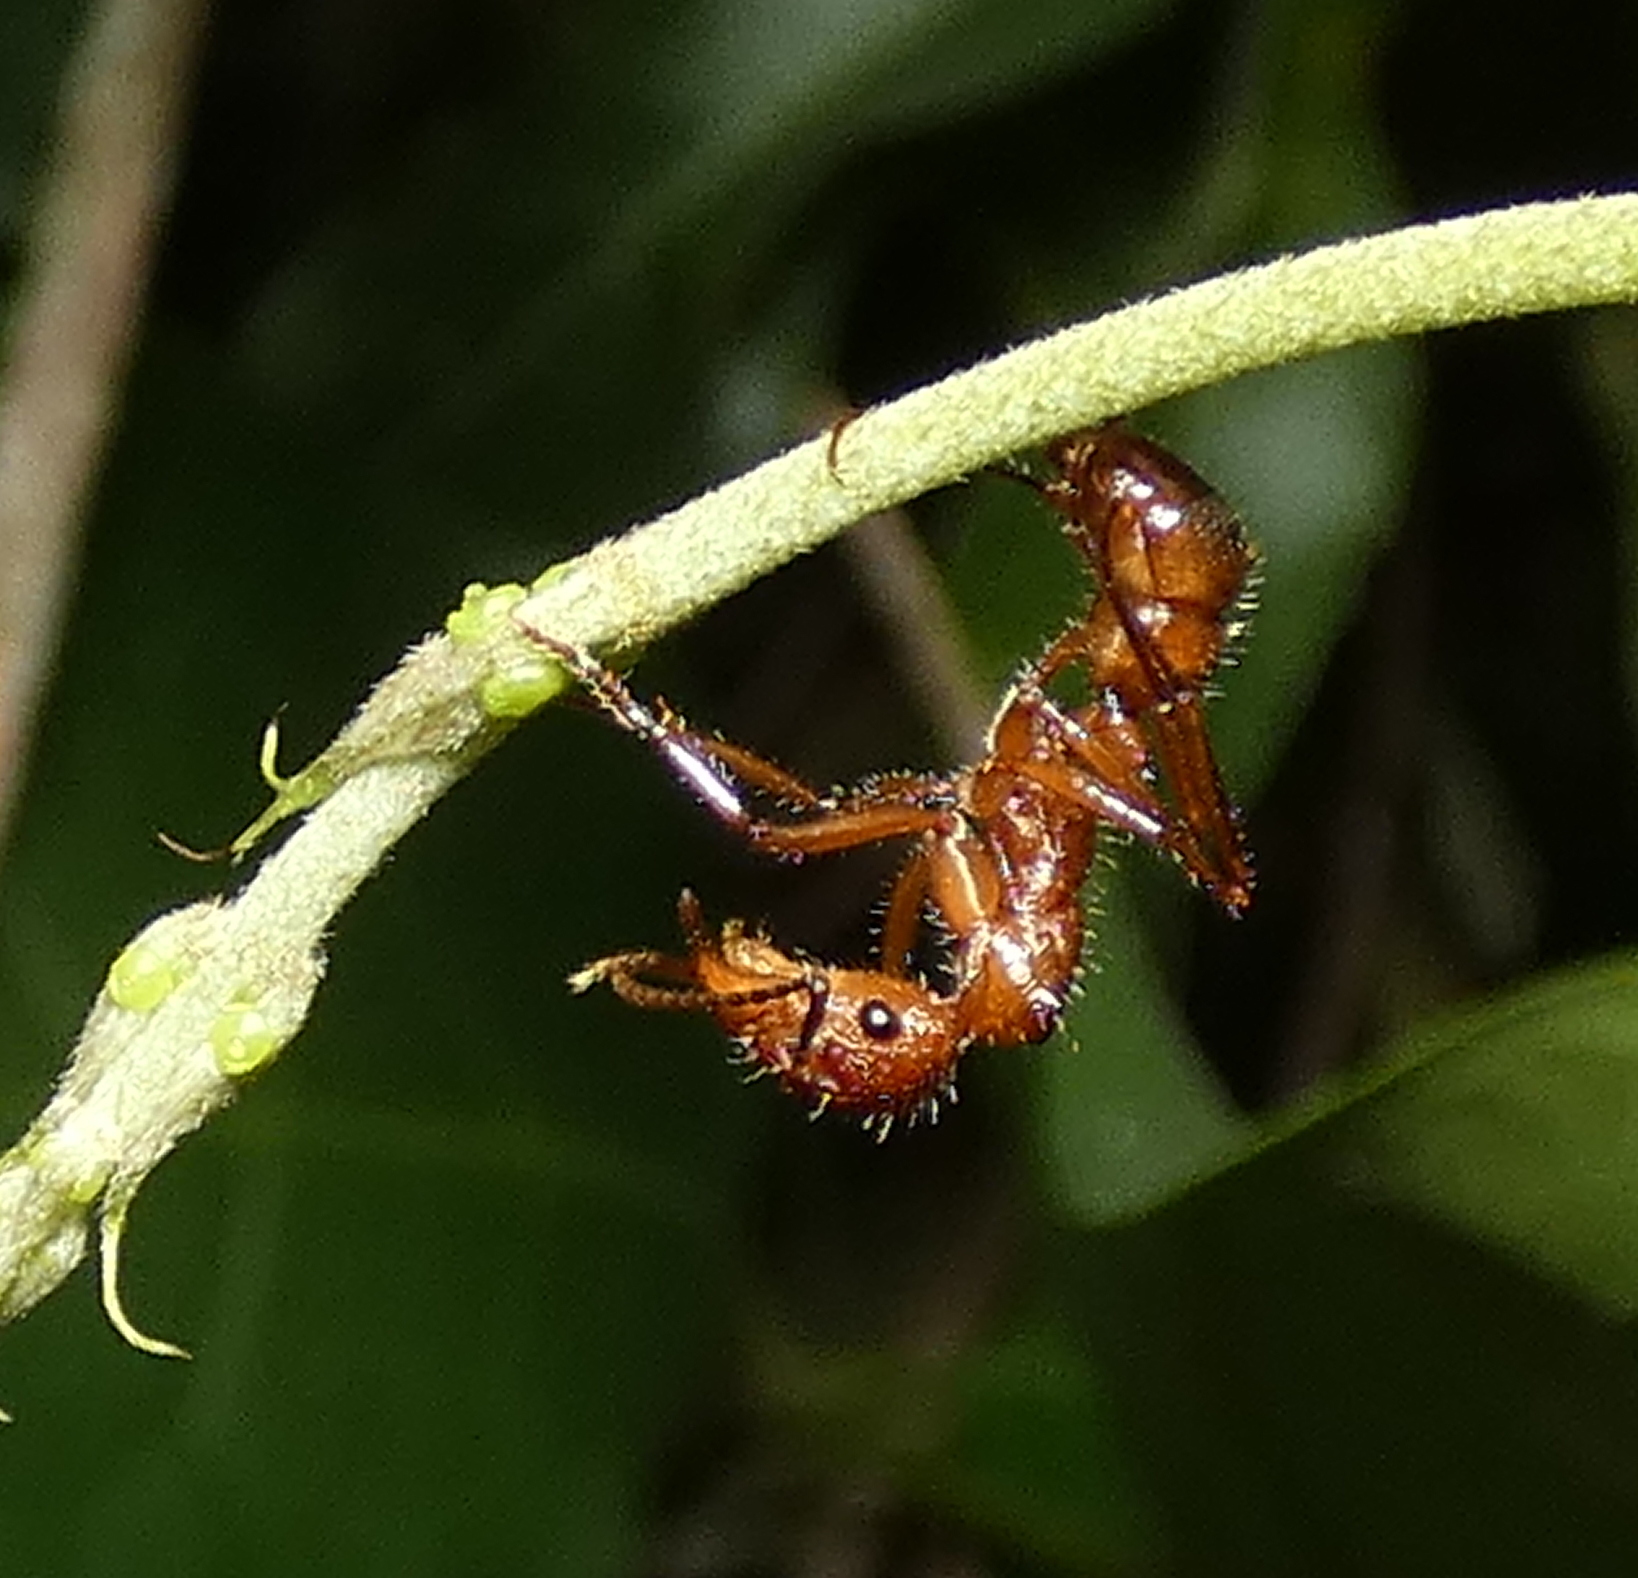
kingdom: Animalia
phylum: Arthropoda
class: Insecta
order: Hymenoptera
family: Formicidae
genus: Ectatomma
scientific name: Ectatomma tuberculatum
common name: Ant
